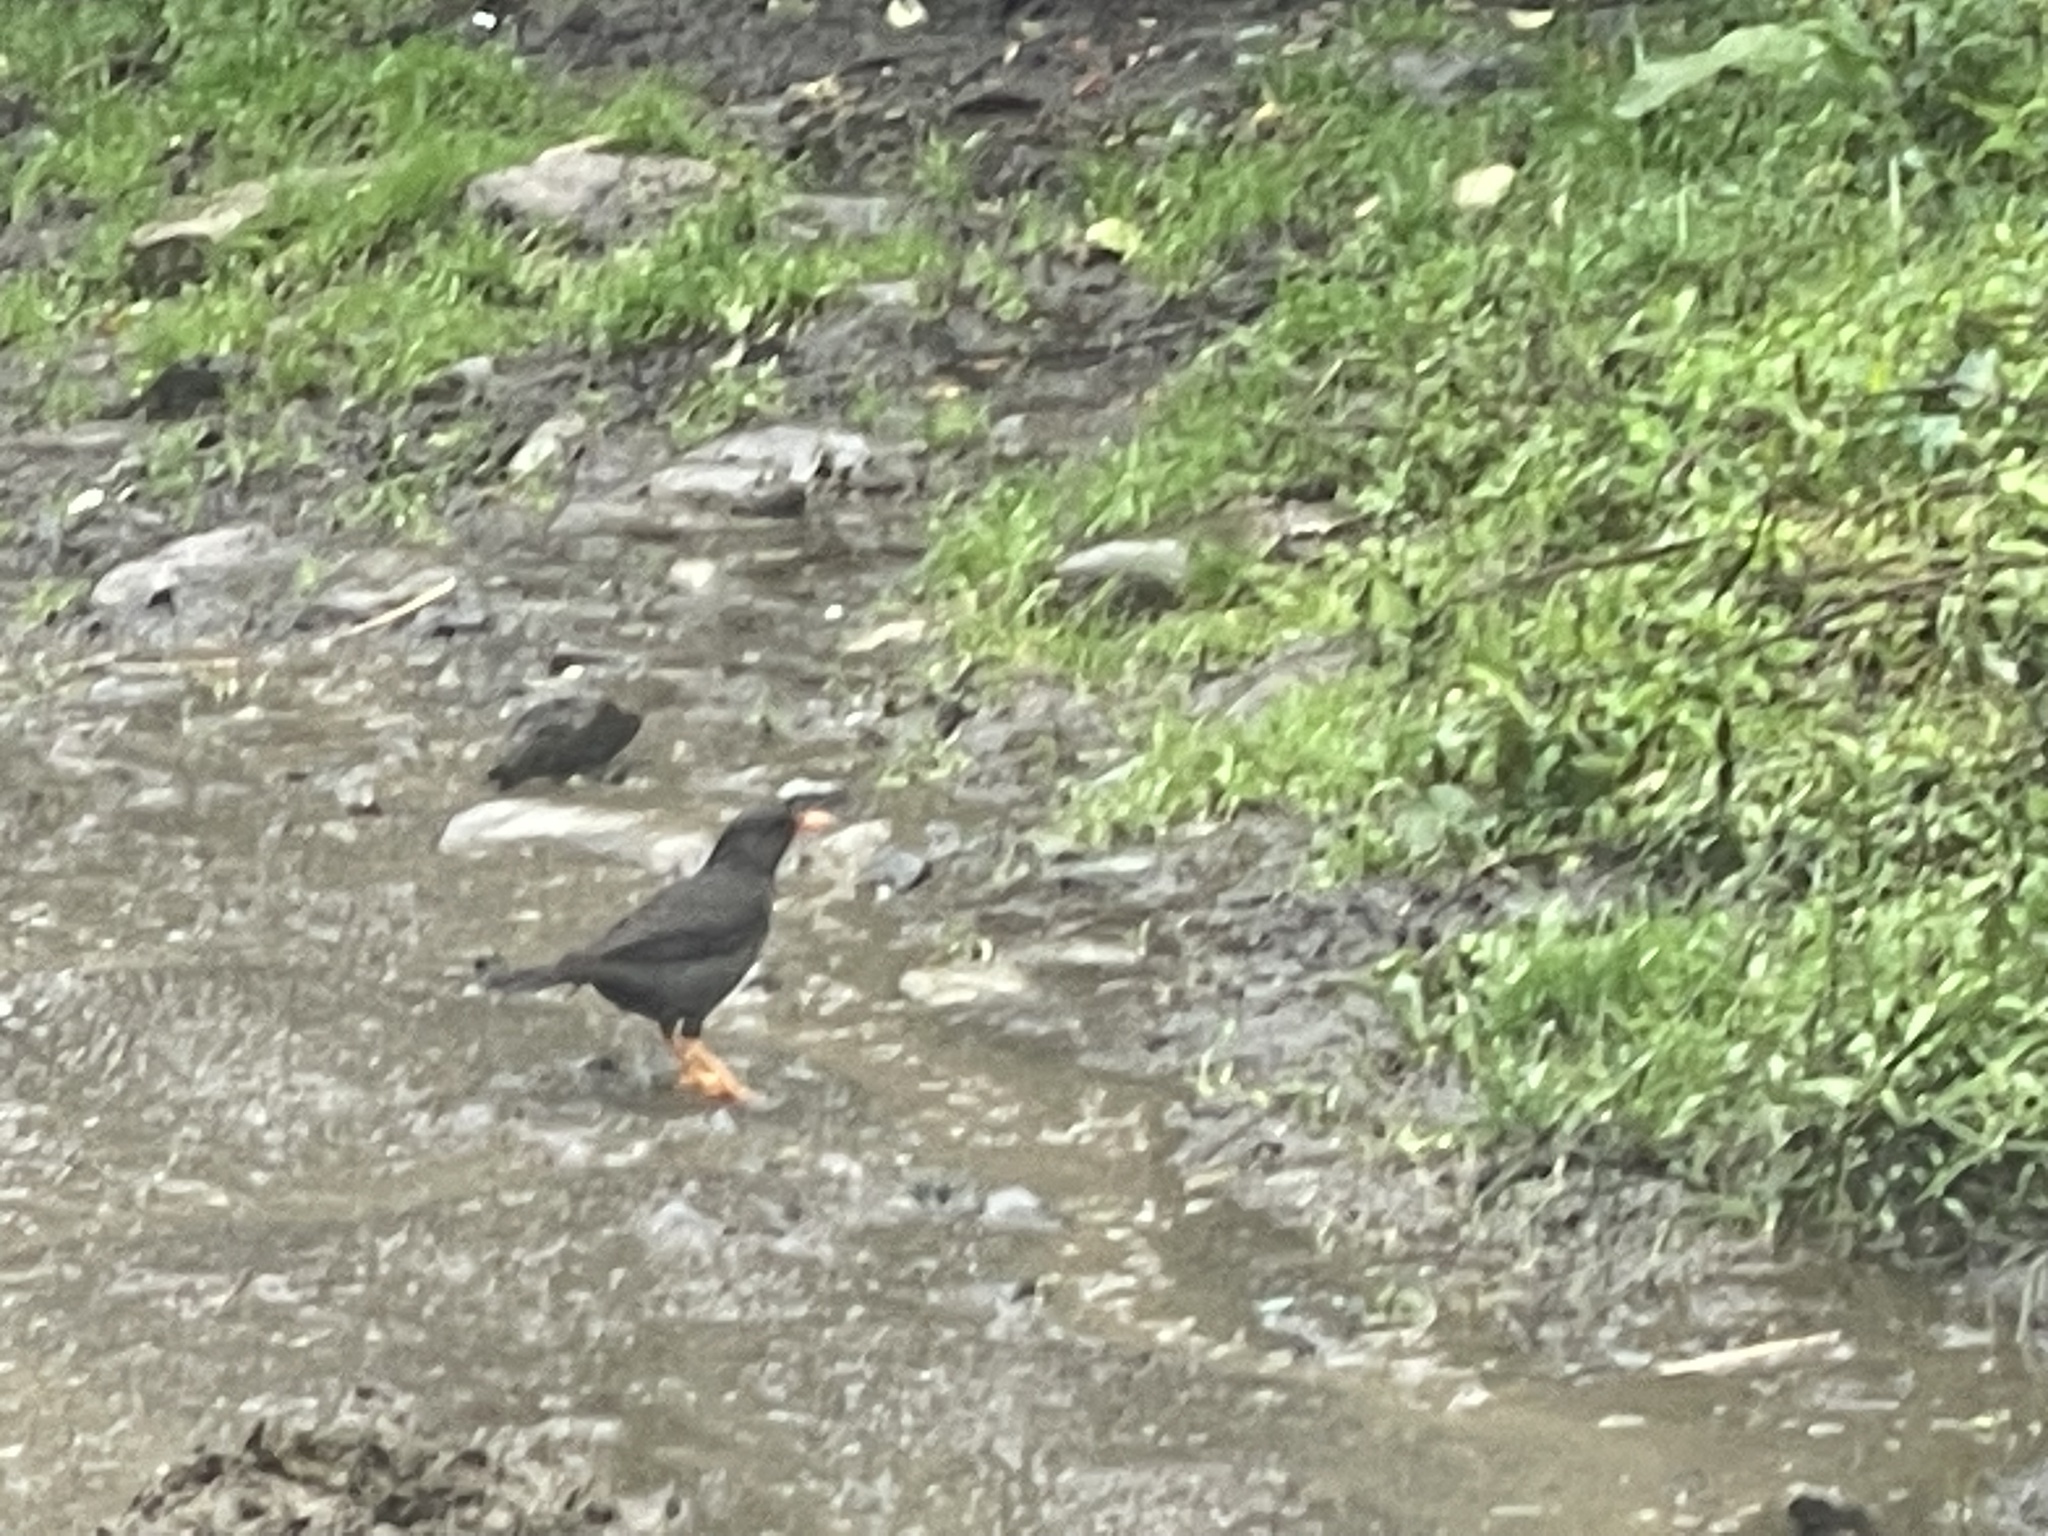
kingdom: Animalia
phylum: Chordata
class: Aves
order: Passeriformes
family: Turdidae
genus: Turdus
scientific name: Turdus fuscater
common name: Great thrush
